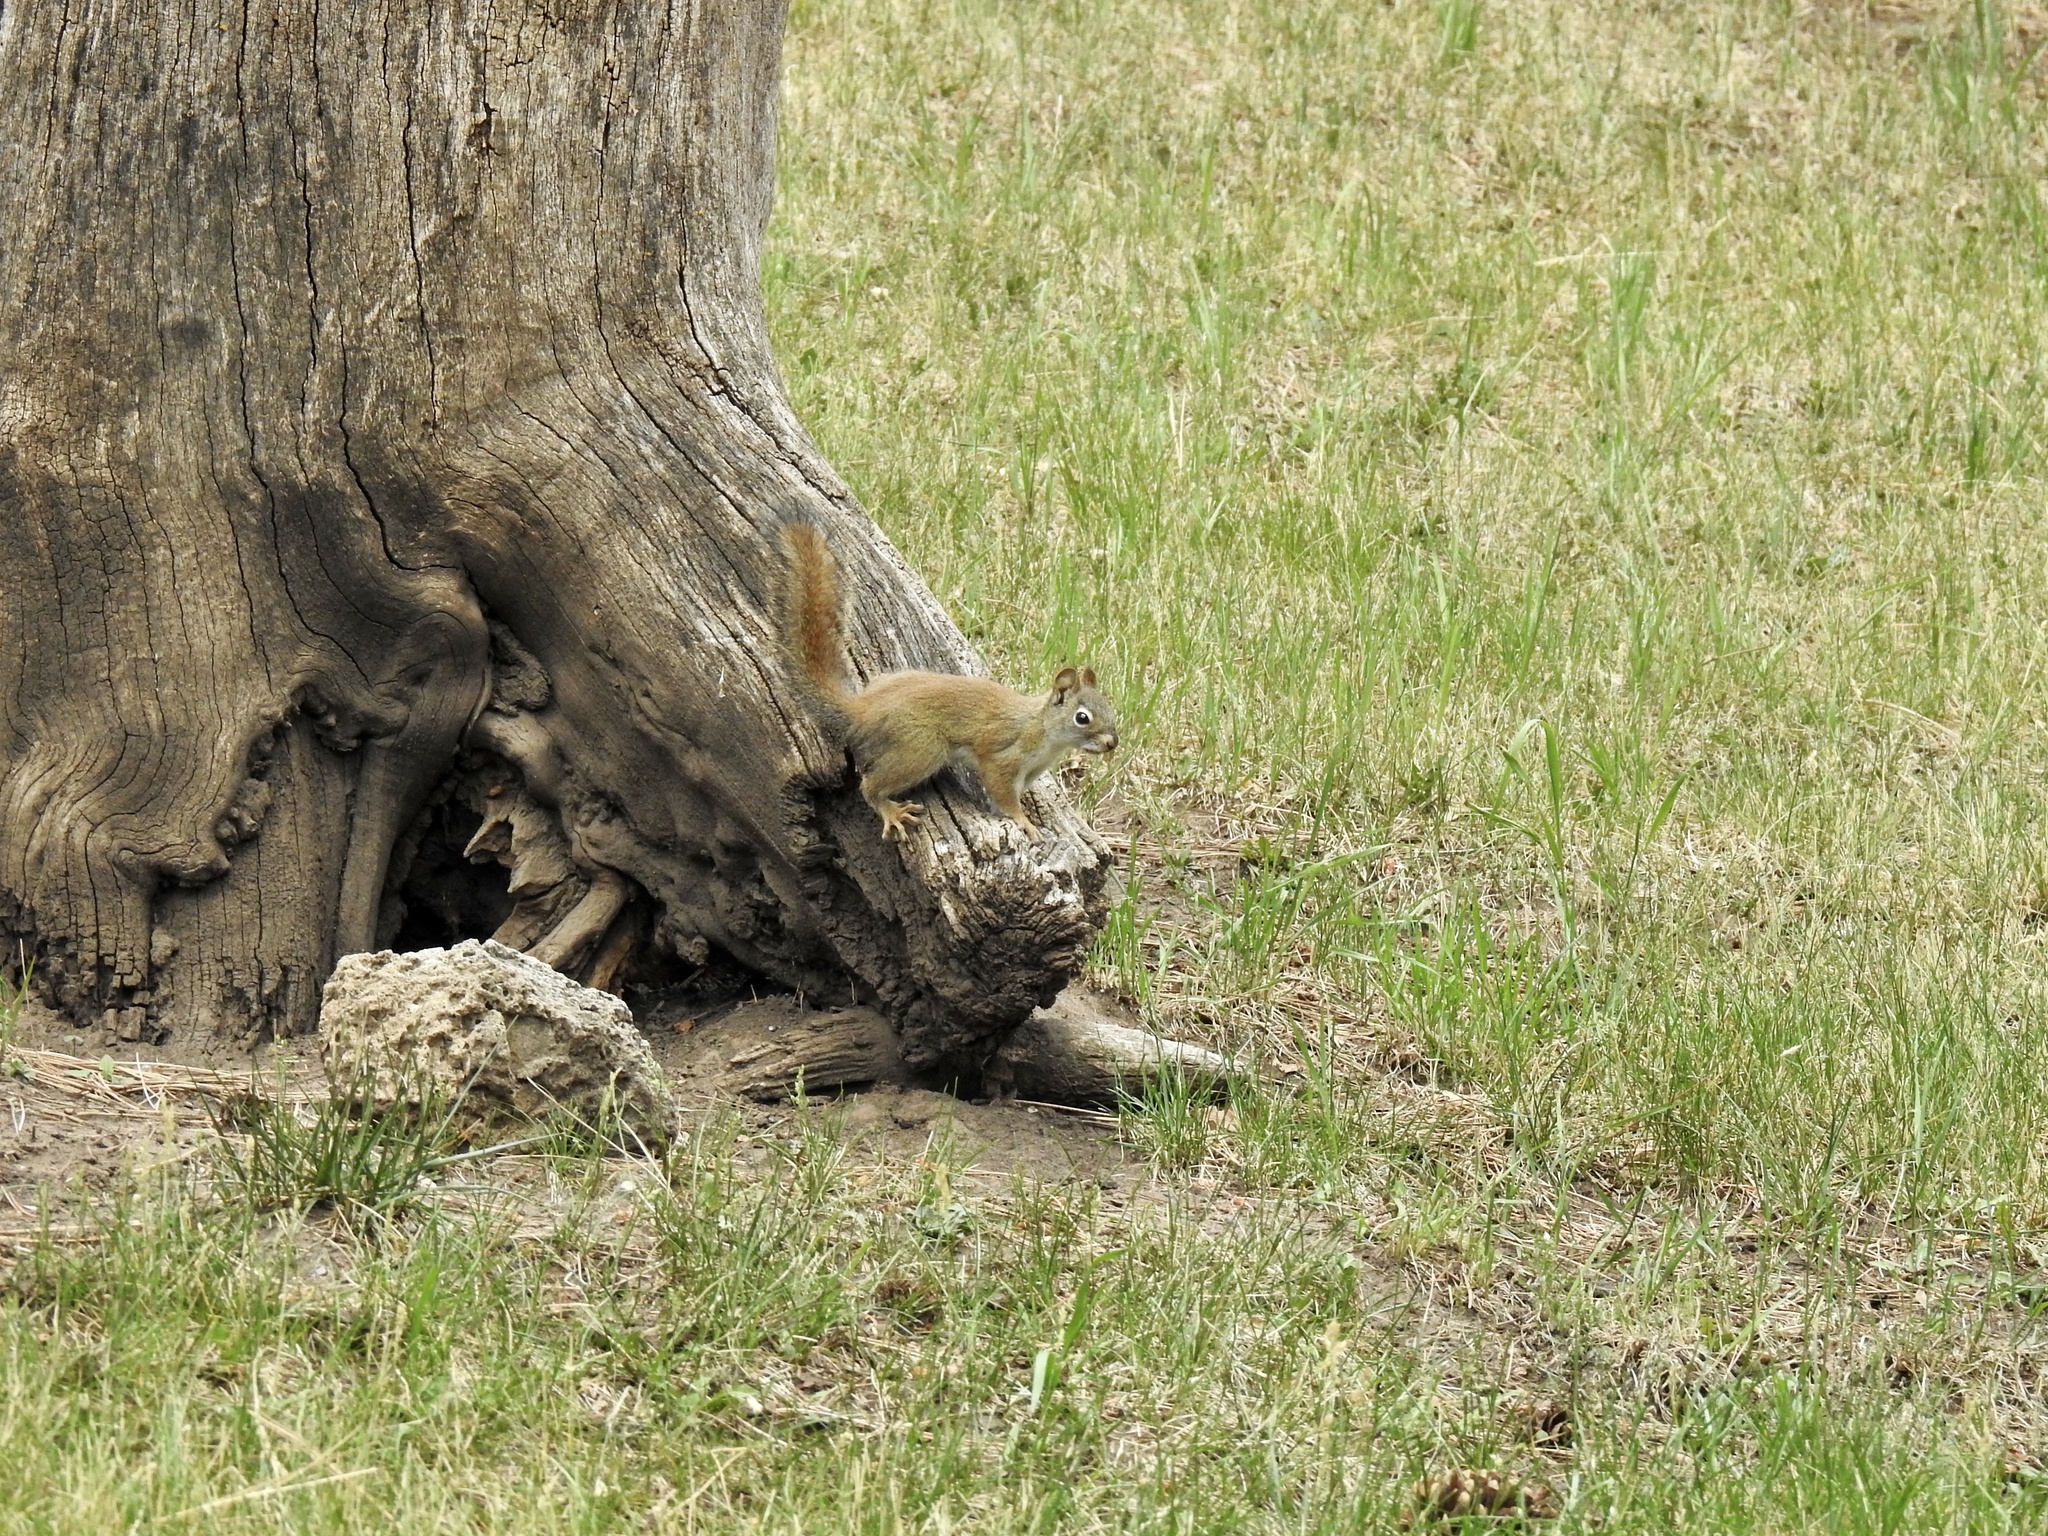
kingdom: Animalia
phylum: Chordata
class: Mammalia
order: Rodentia
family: Sciuridae
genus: Tamiasciurus
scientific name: Tamiasciurus hudsonicus
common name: Red squirrel
